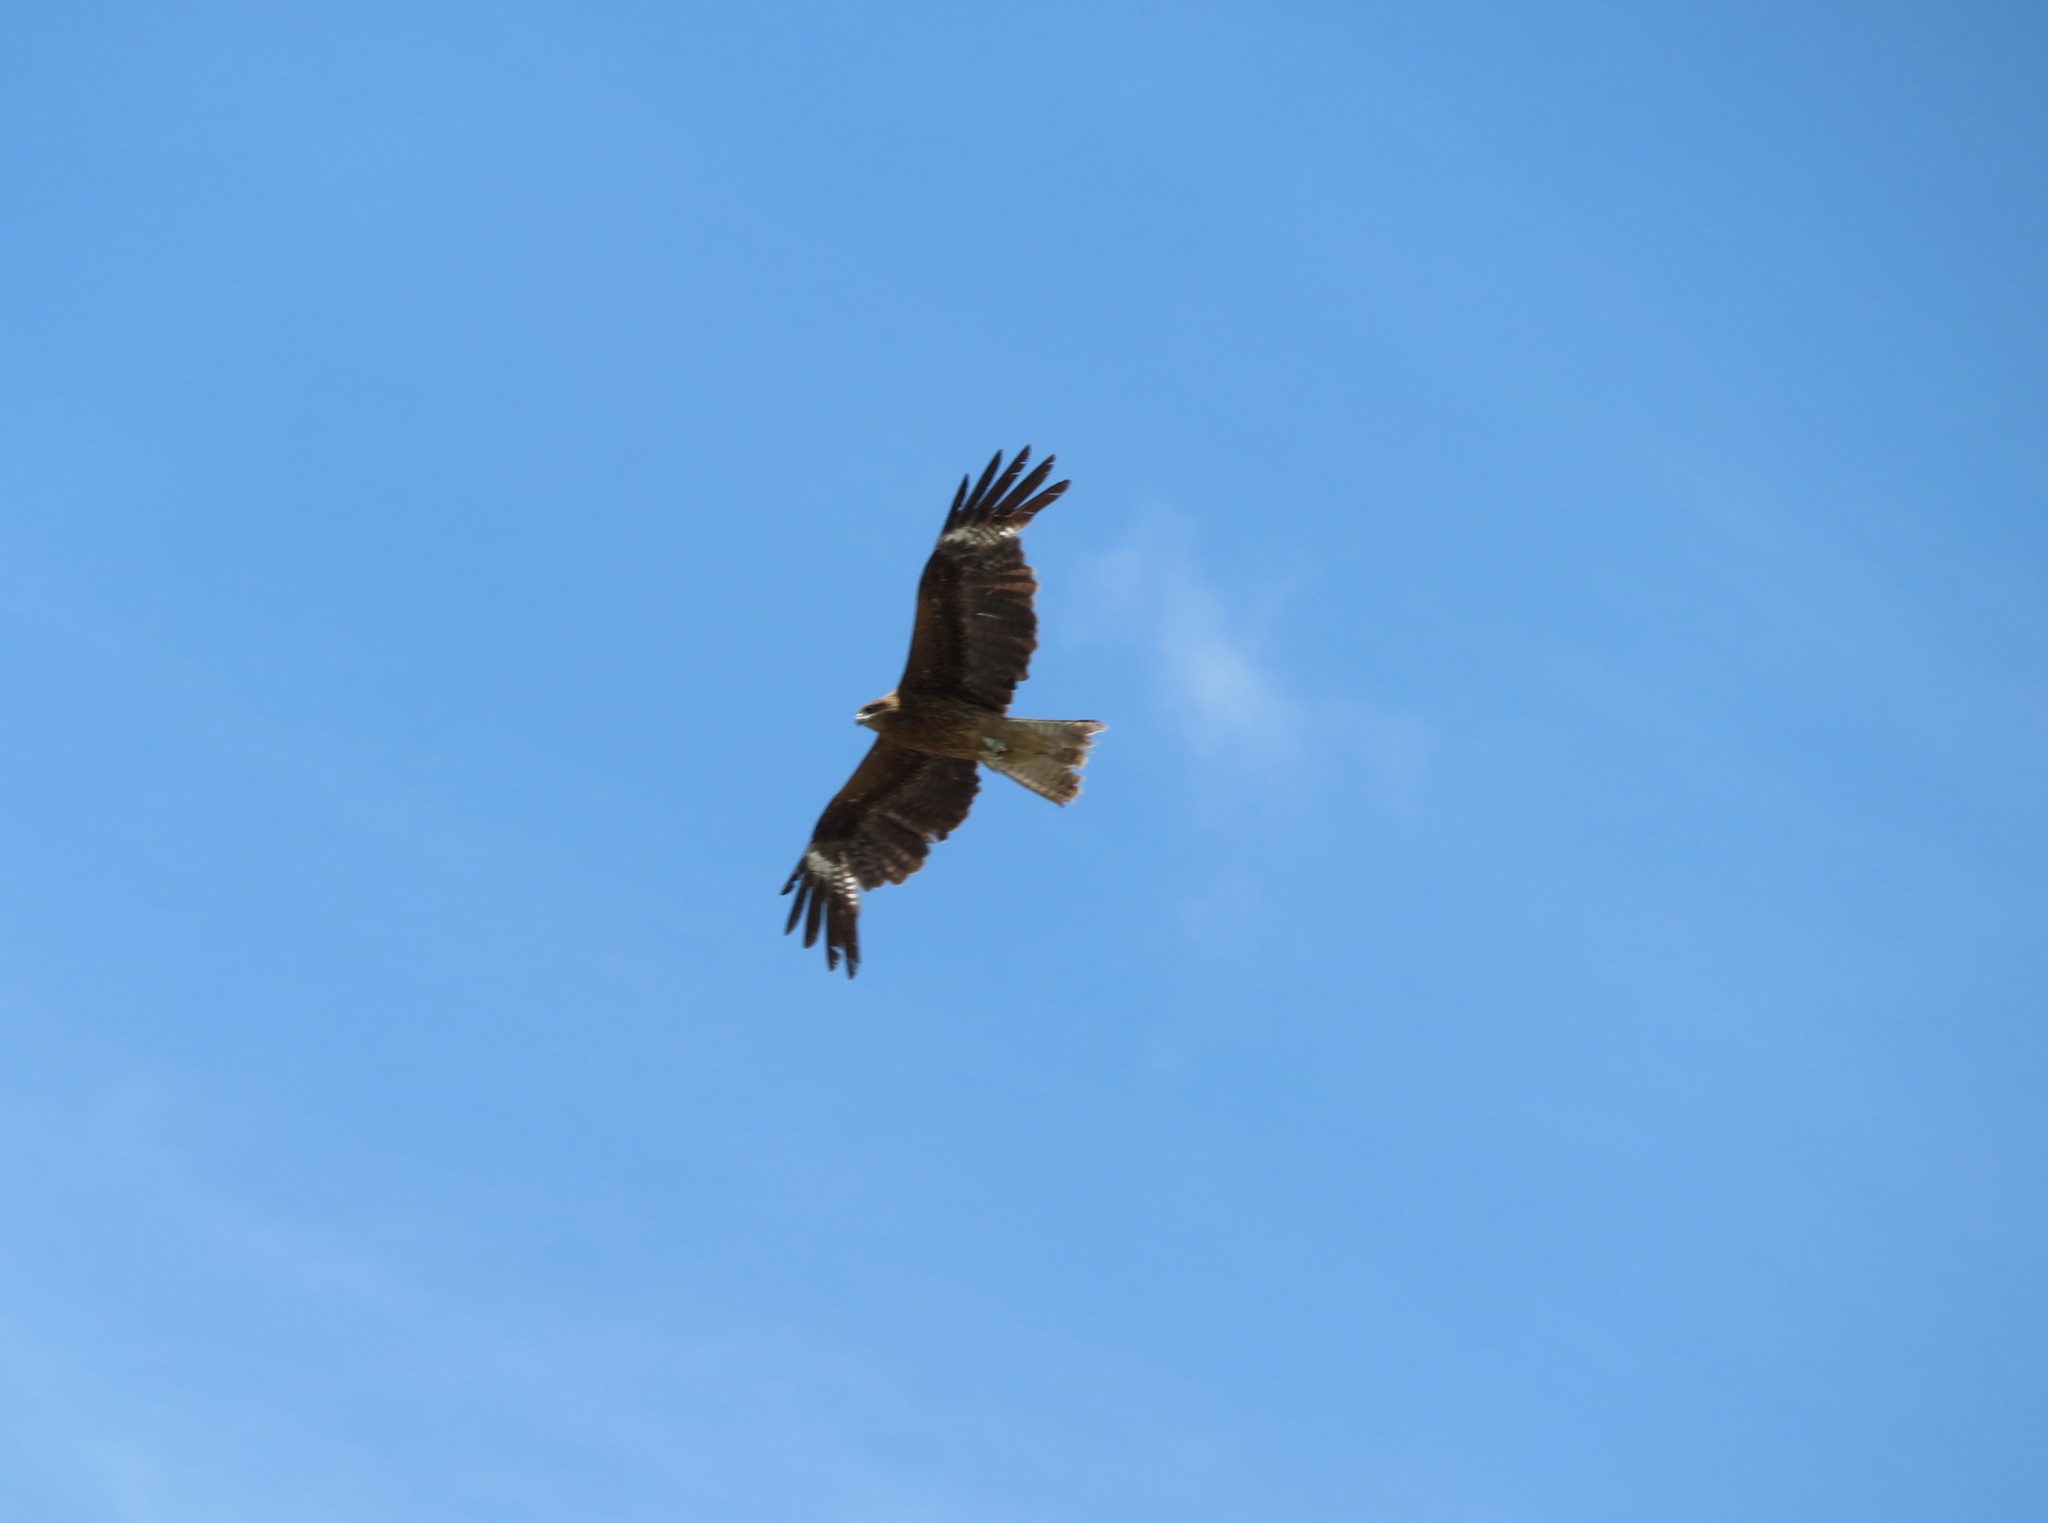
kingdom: Animalia
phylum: Chordata
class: Aves
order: Accipitriformes
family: Accipitridae
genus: Milvus
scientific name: Milvus migrans
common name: Black kite
